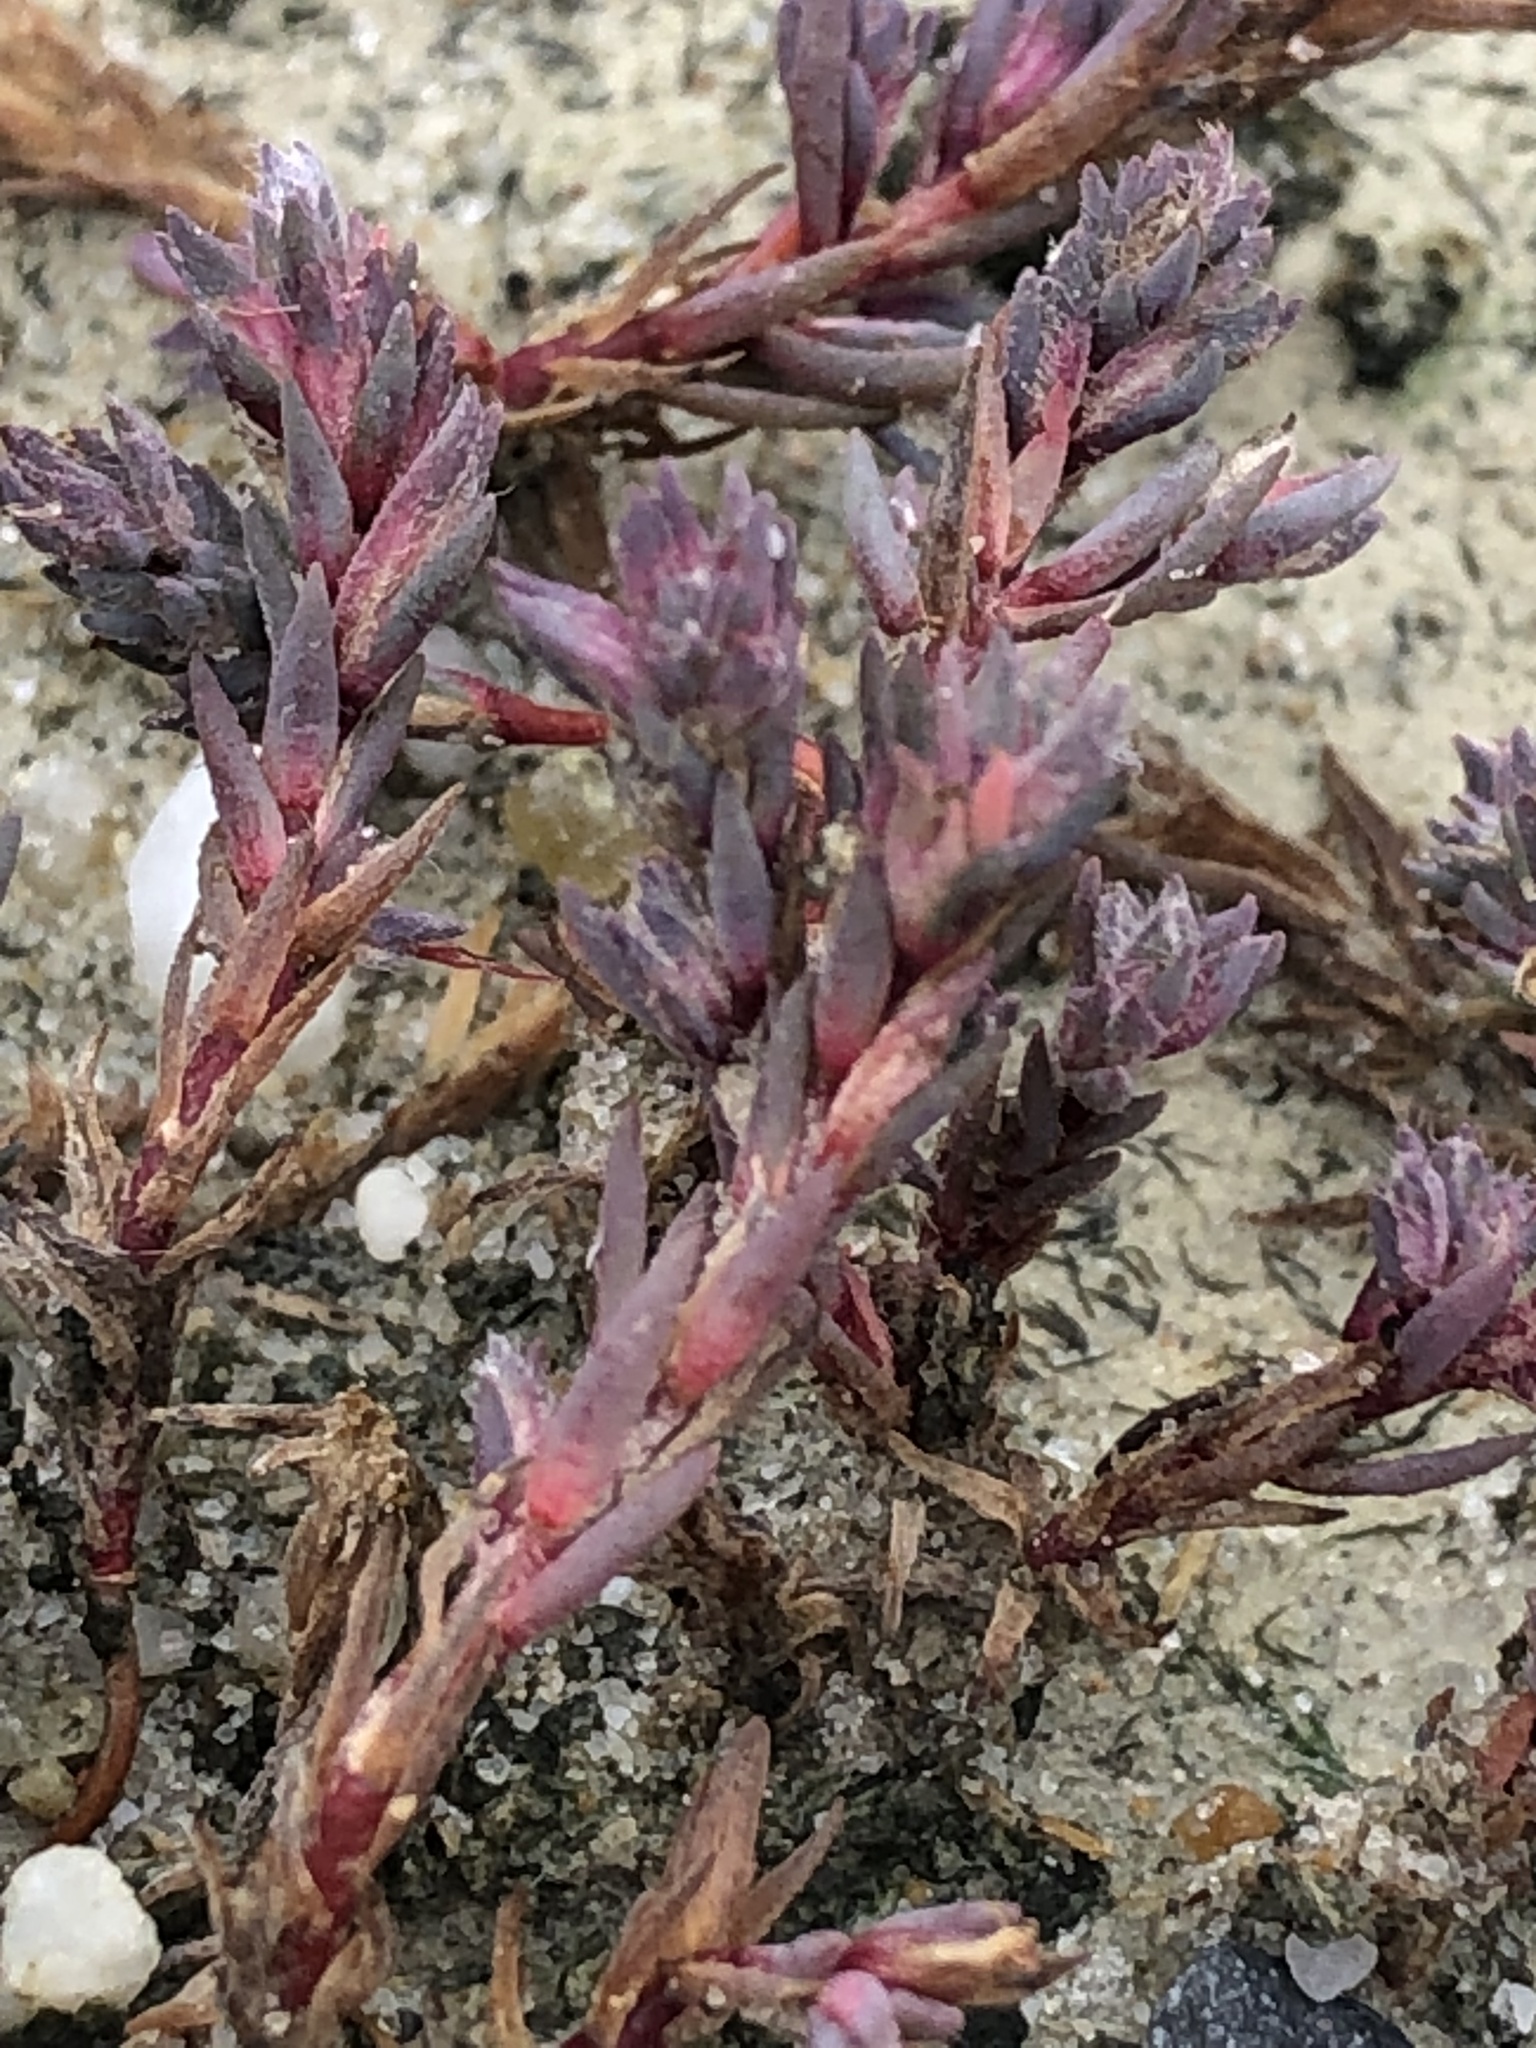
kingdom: Plantae
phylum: Tracheophyta
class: Magnoliopsida
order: Caryophyllales
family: Amaranthaceae
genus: Camphorosma
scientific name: Camphorosma annua
